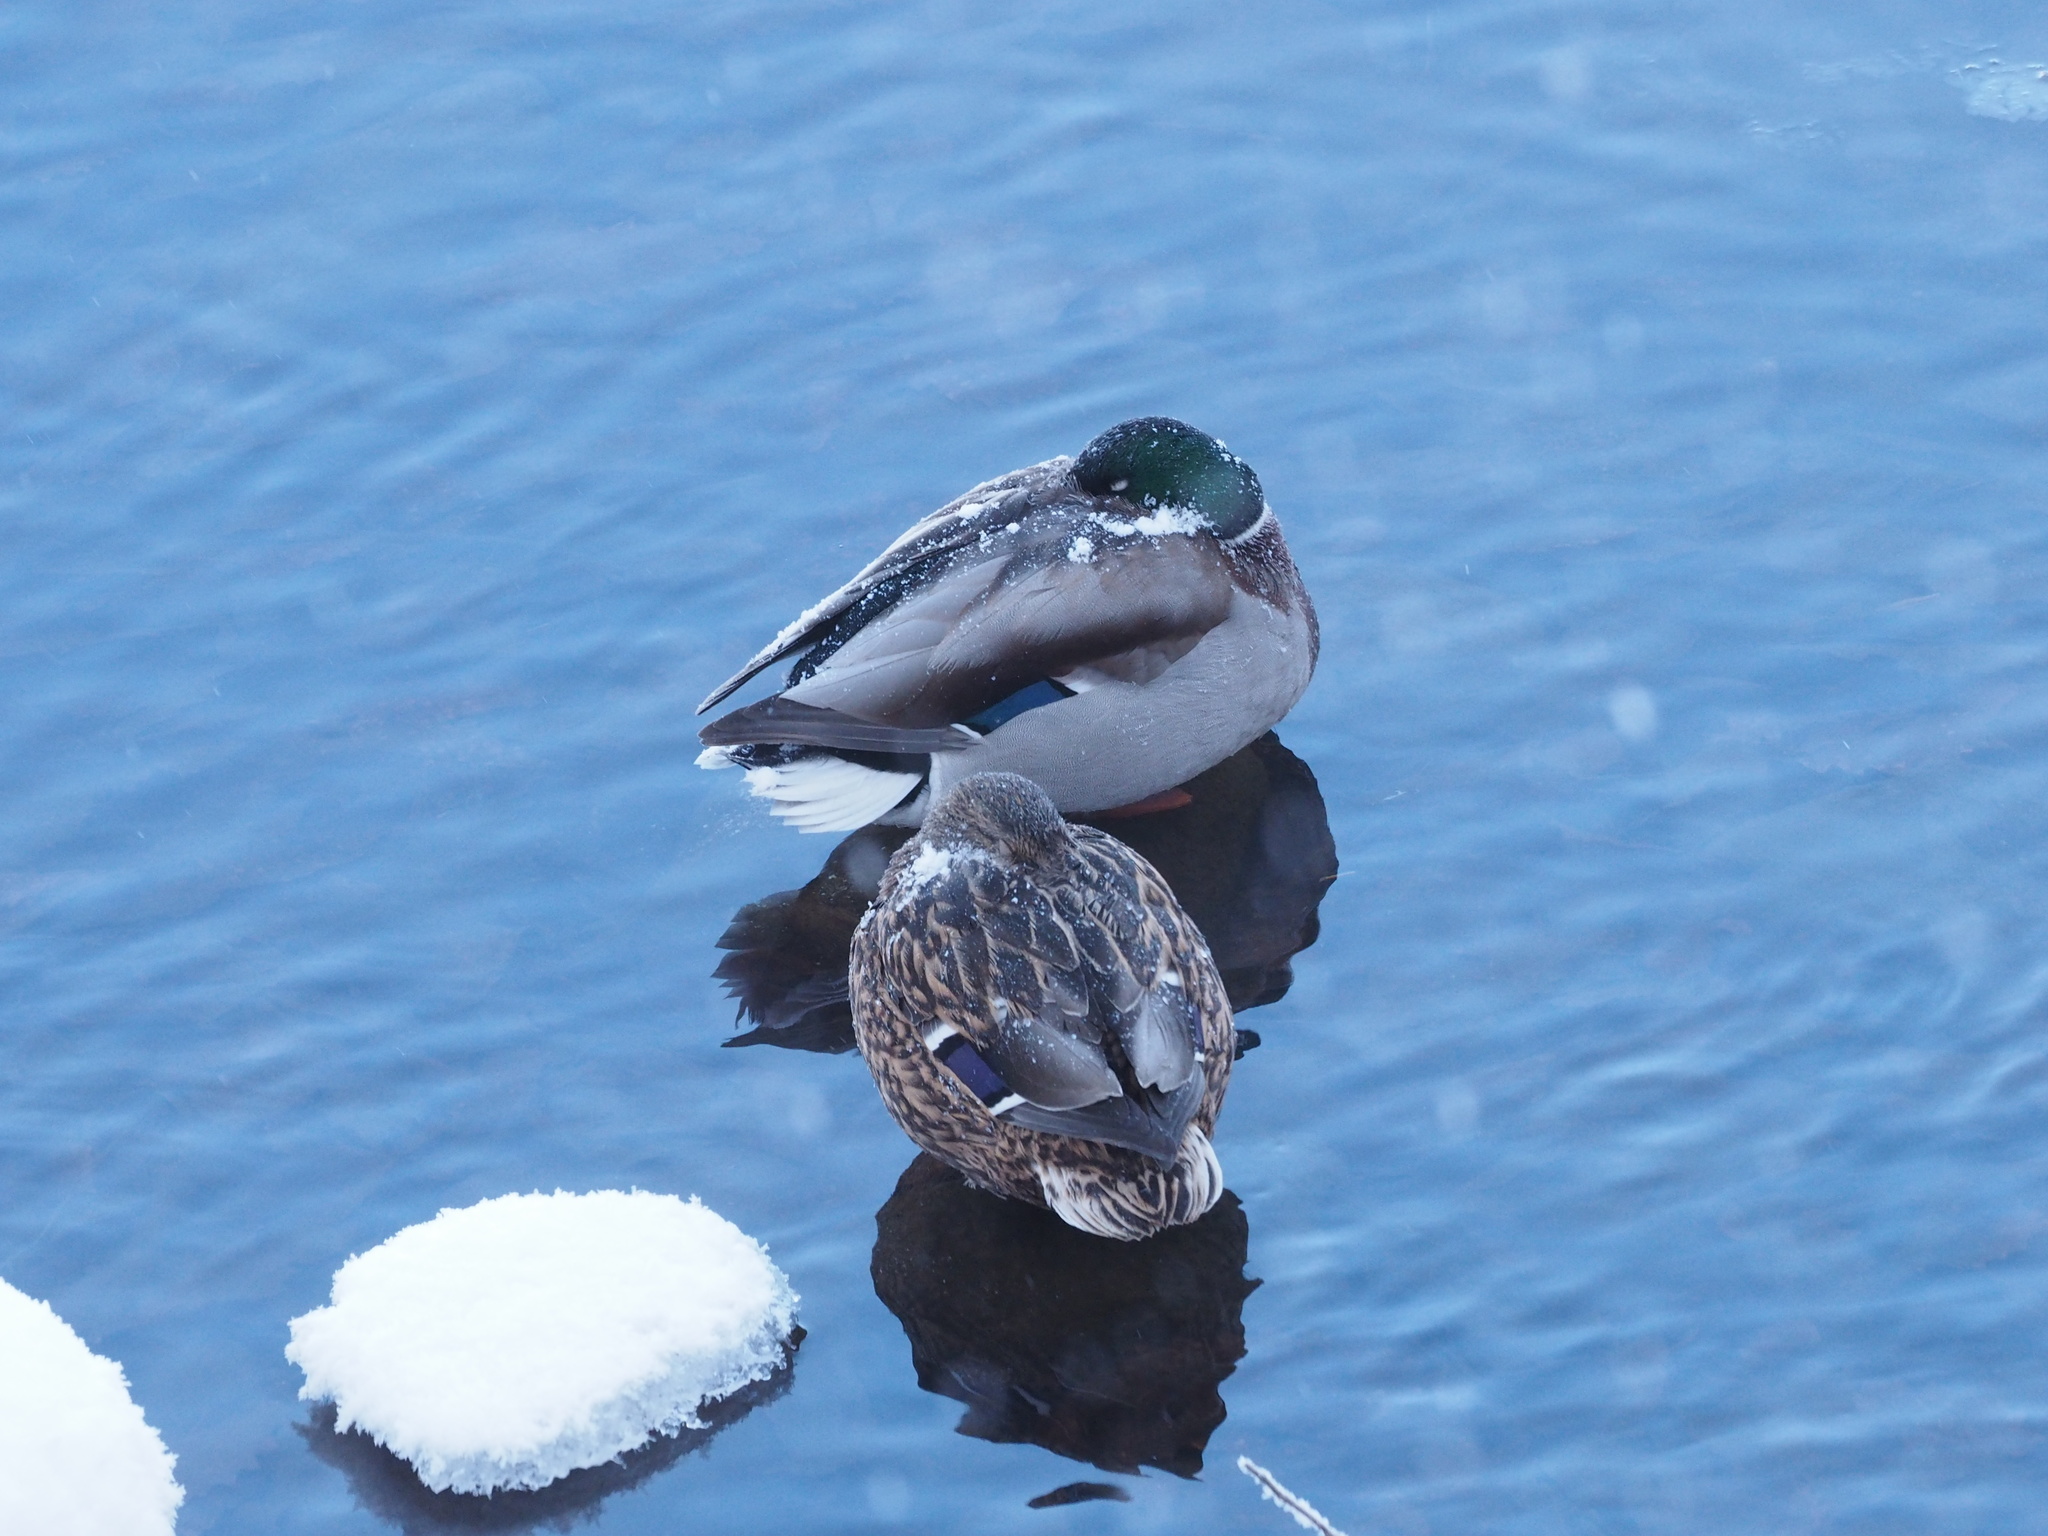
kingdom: Animalia
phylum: Chordata
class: Aves
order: Anseriformes
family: Anatidae
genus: Anas
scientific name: Anas platyrhynchos
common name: Mallard
